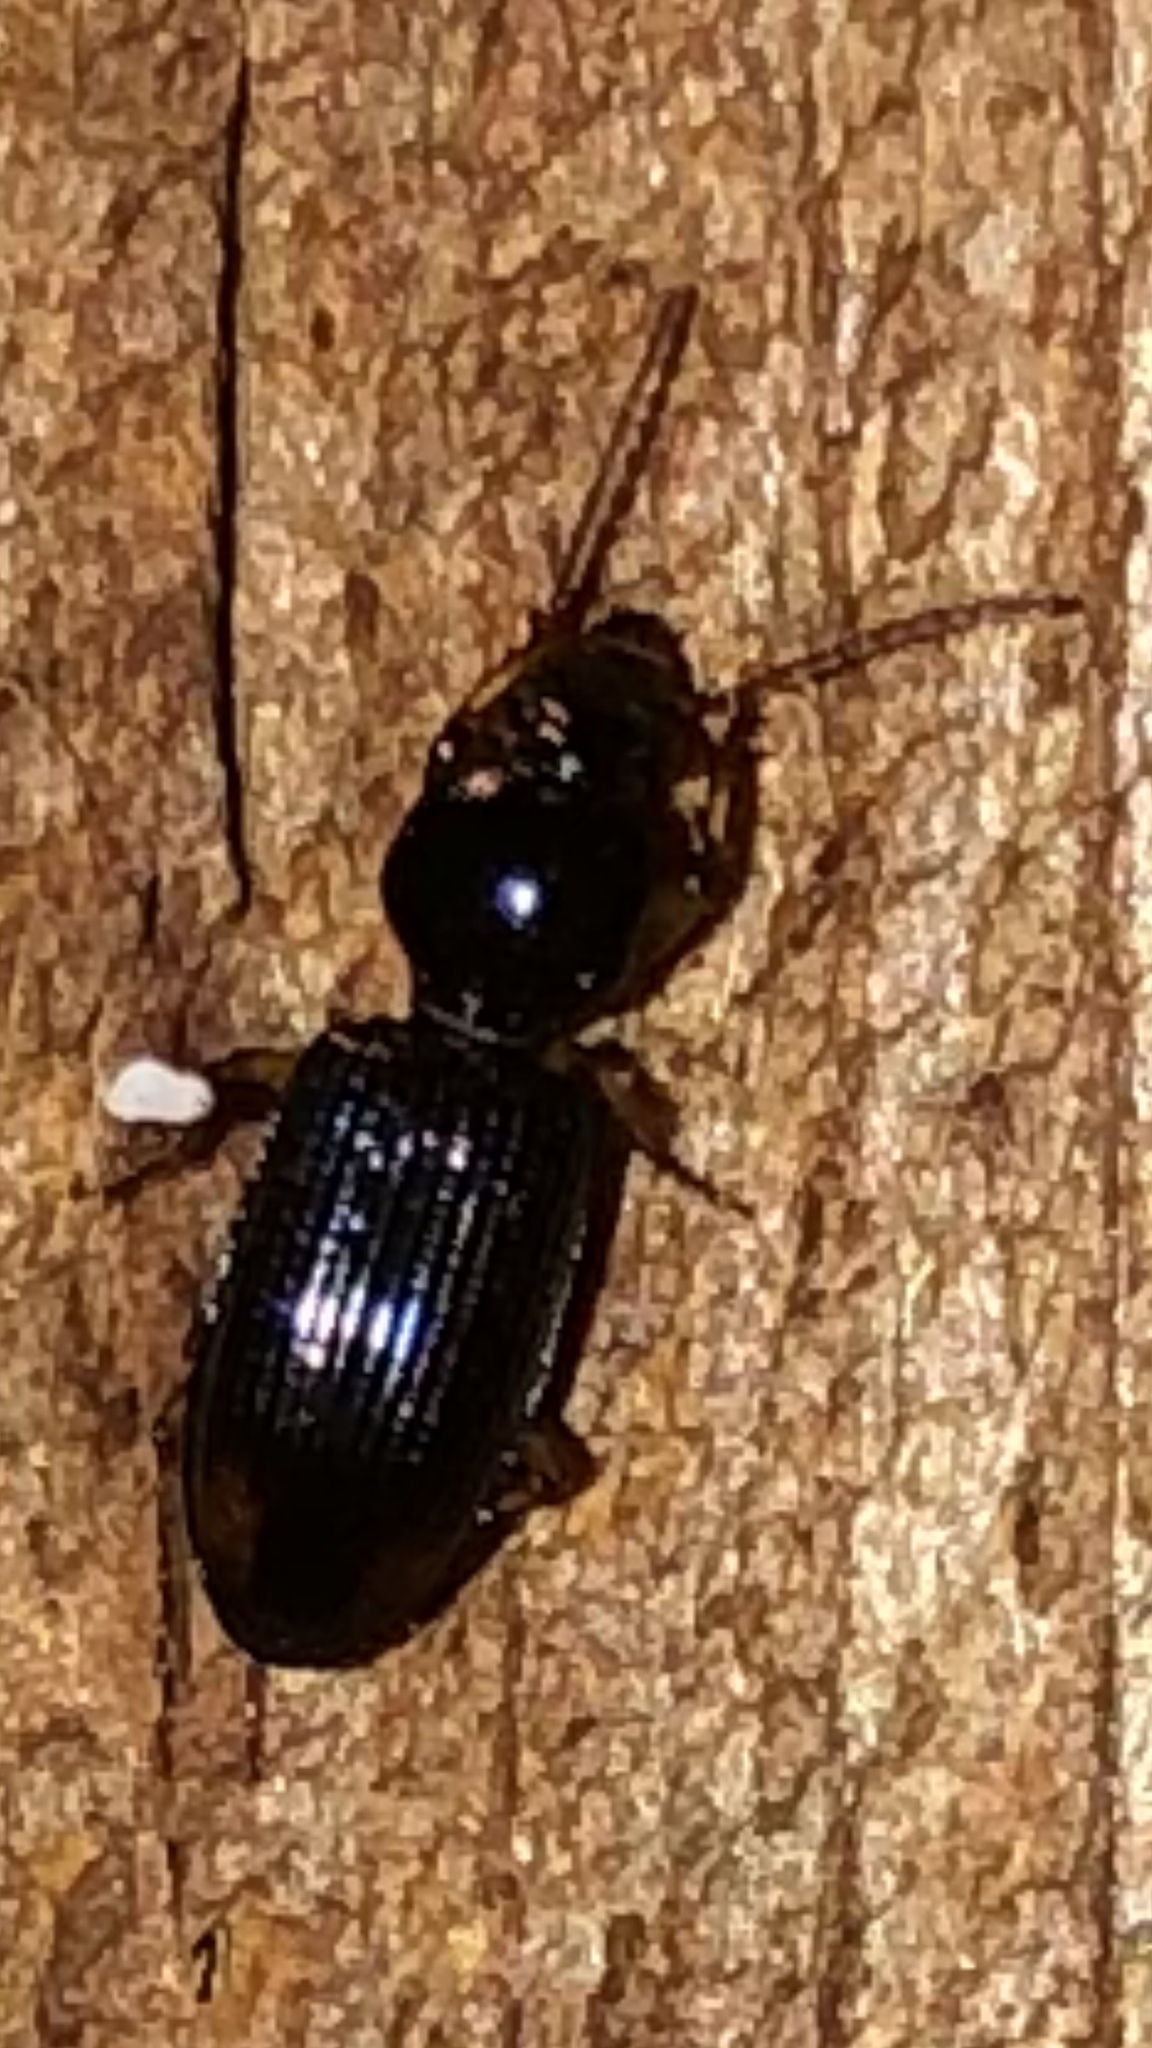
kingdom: Animalia
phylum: Arthropoda
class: Insecta
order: Coleoptera
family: Carabidae
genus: Aspidoglossa
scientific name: Aspidoglossa subangulata
